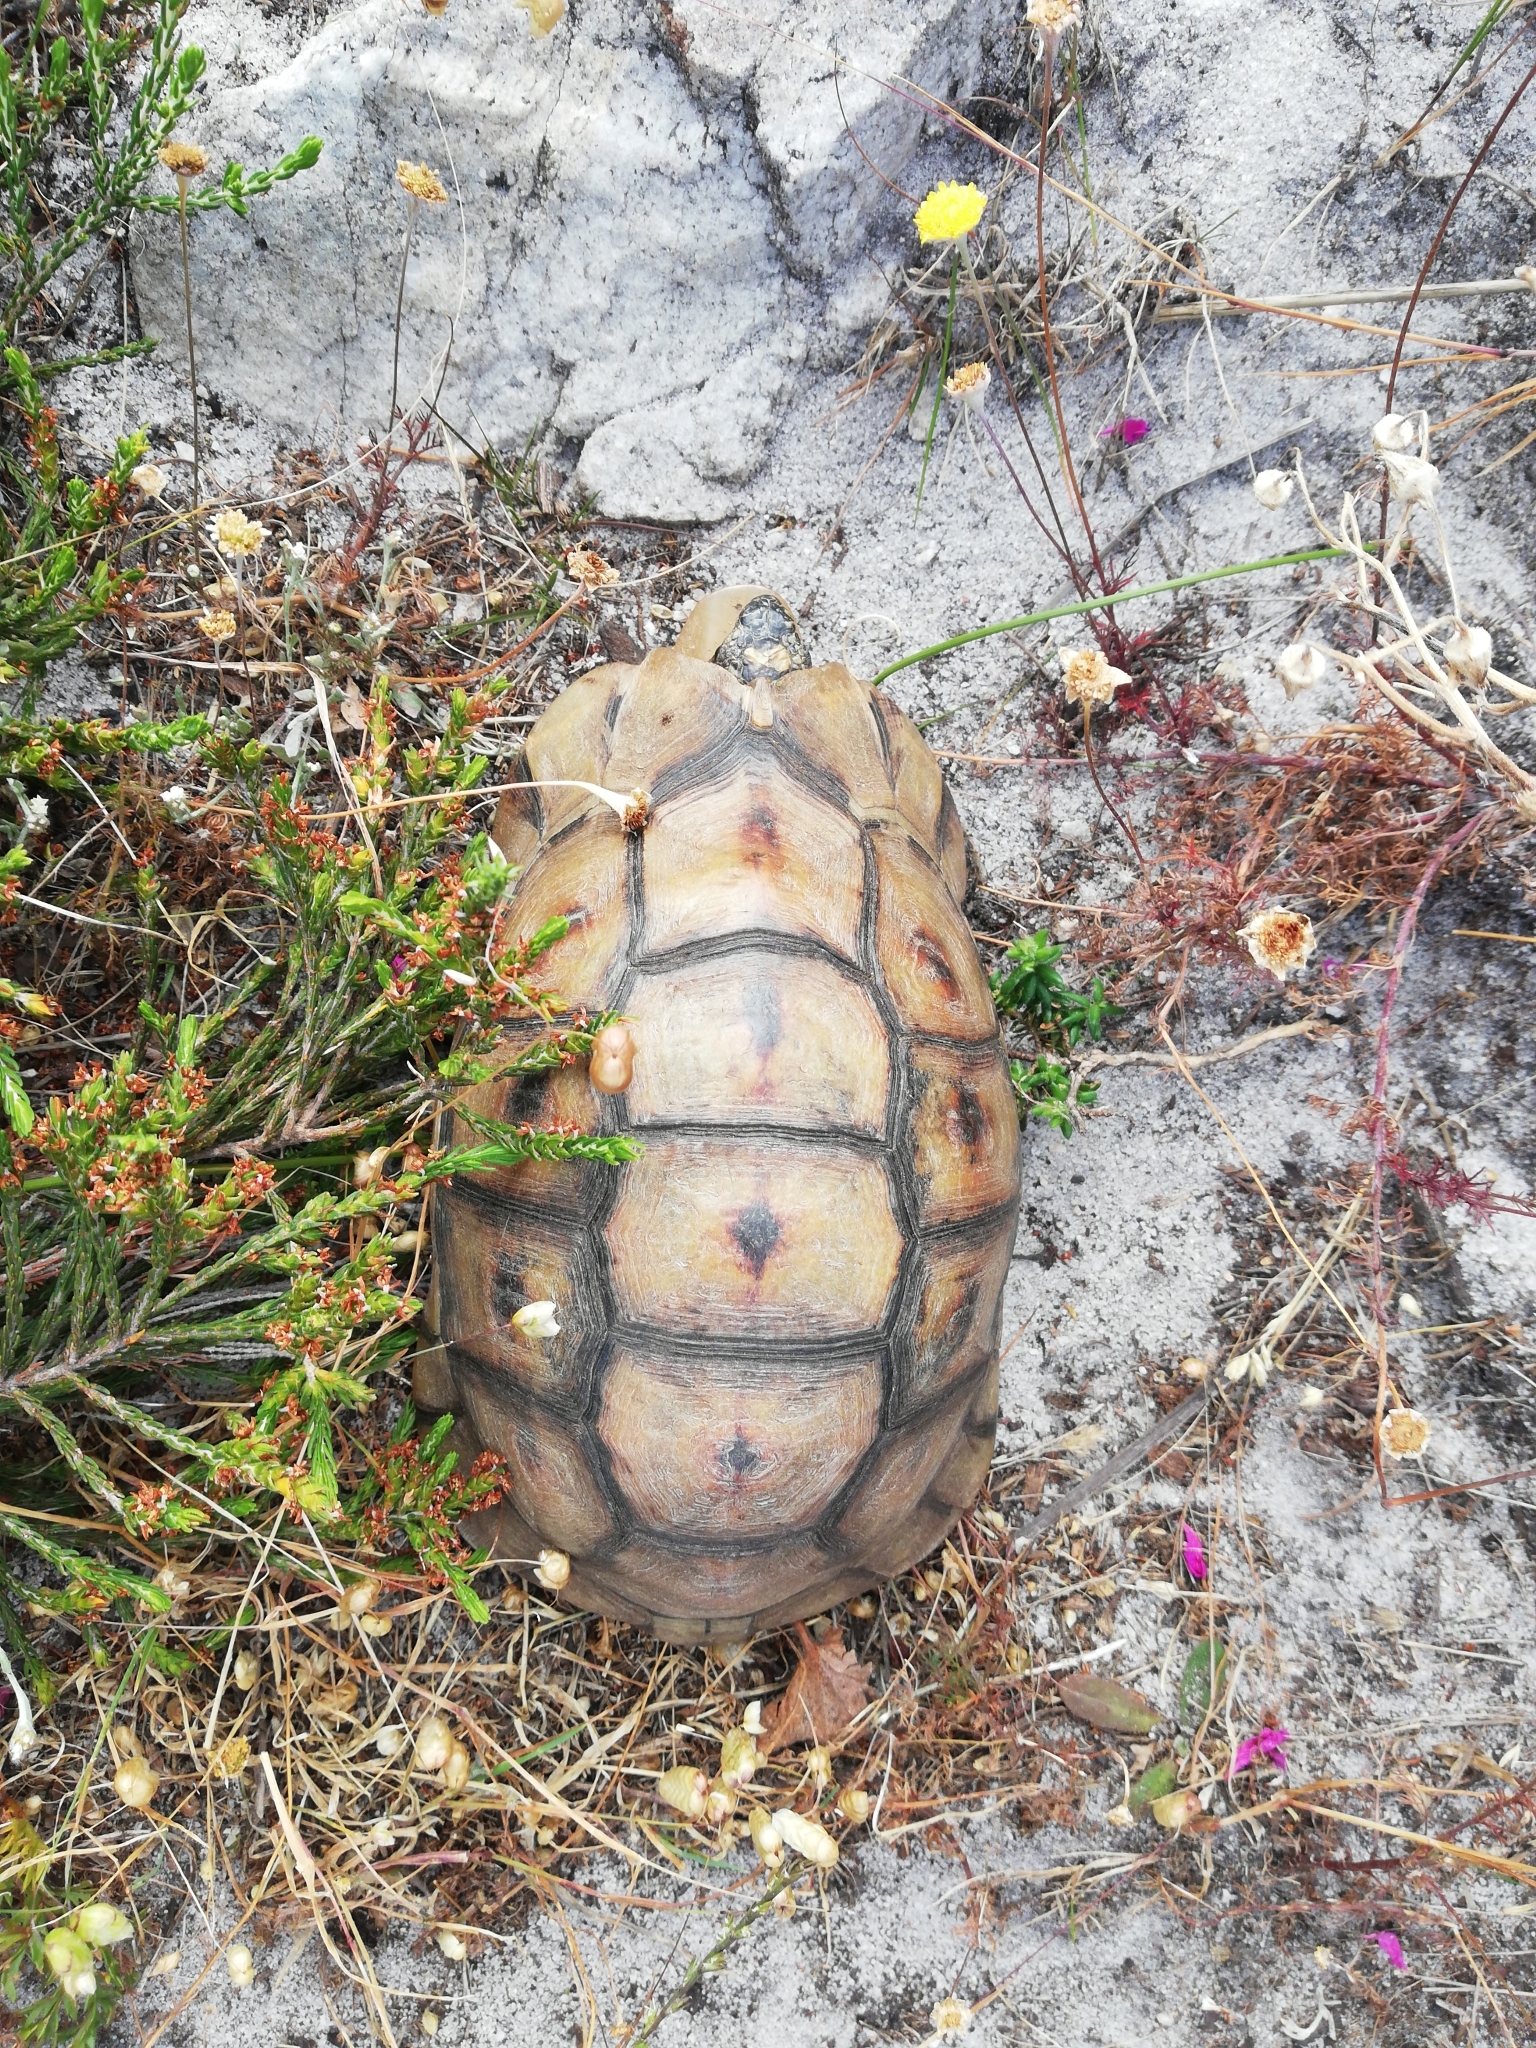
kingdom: Animalia
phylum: Chordata
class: Testudines
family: Testudinidae
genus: Chersina
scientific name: Chersina angulata
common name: South african bowsprit tortoise
